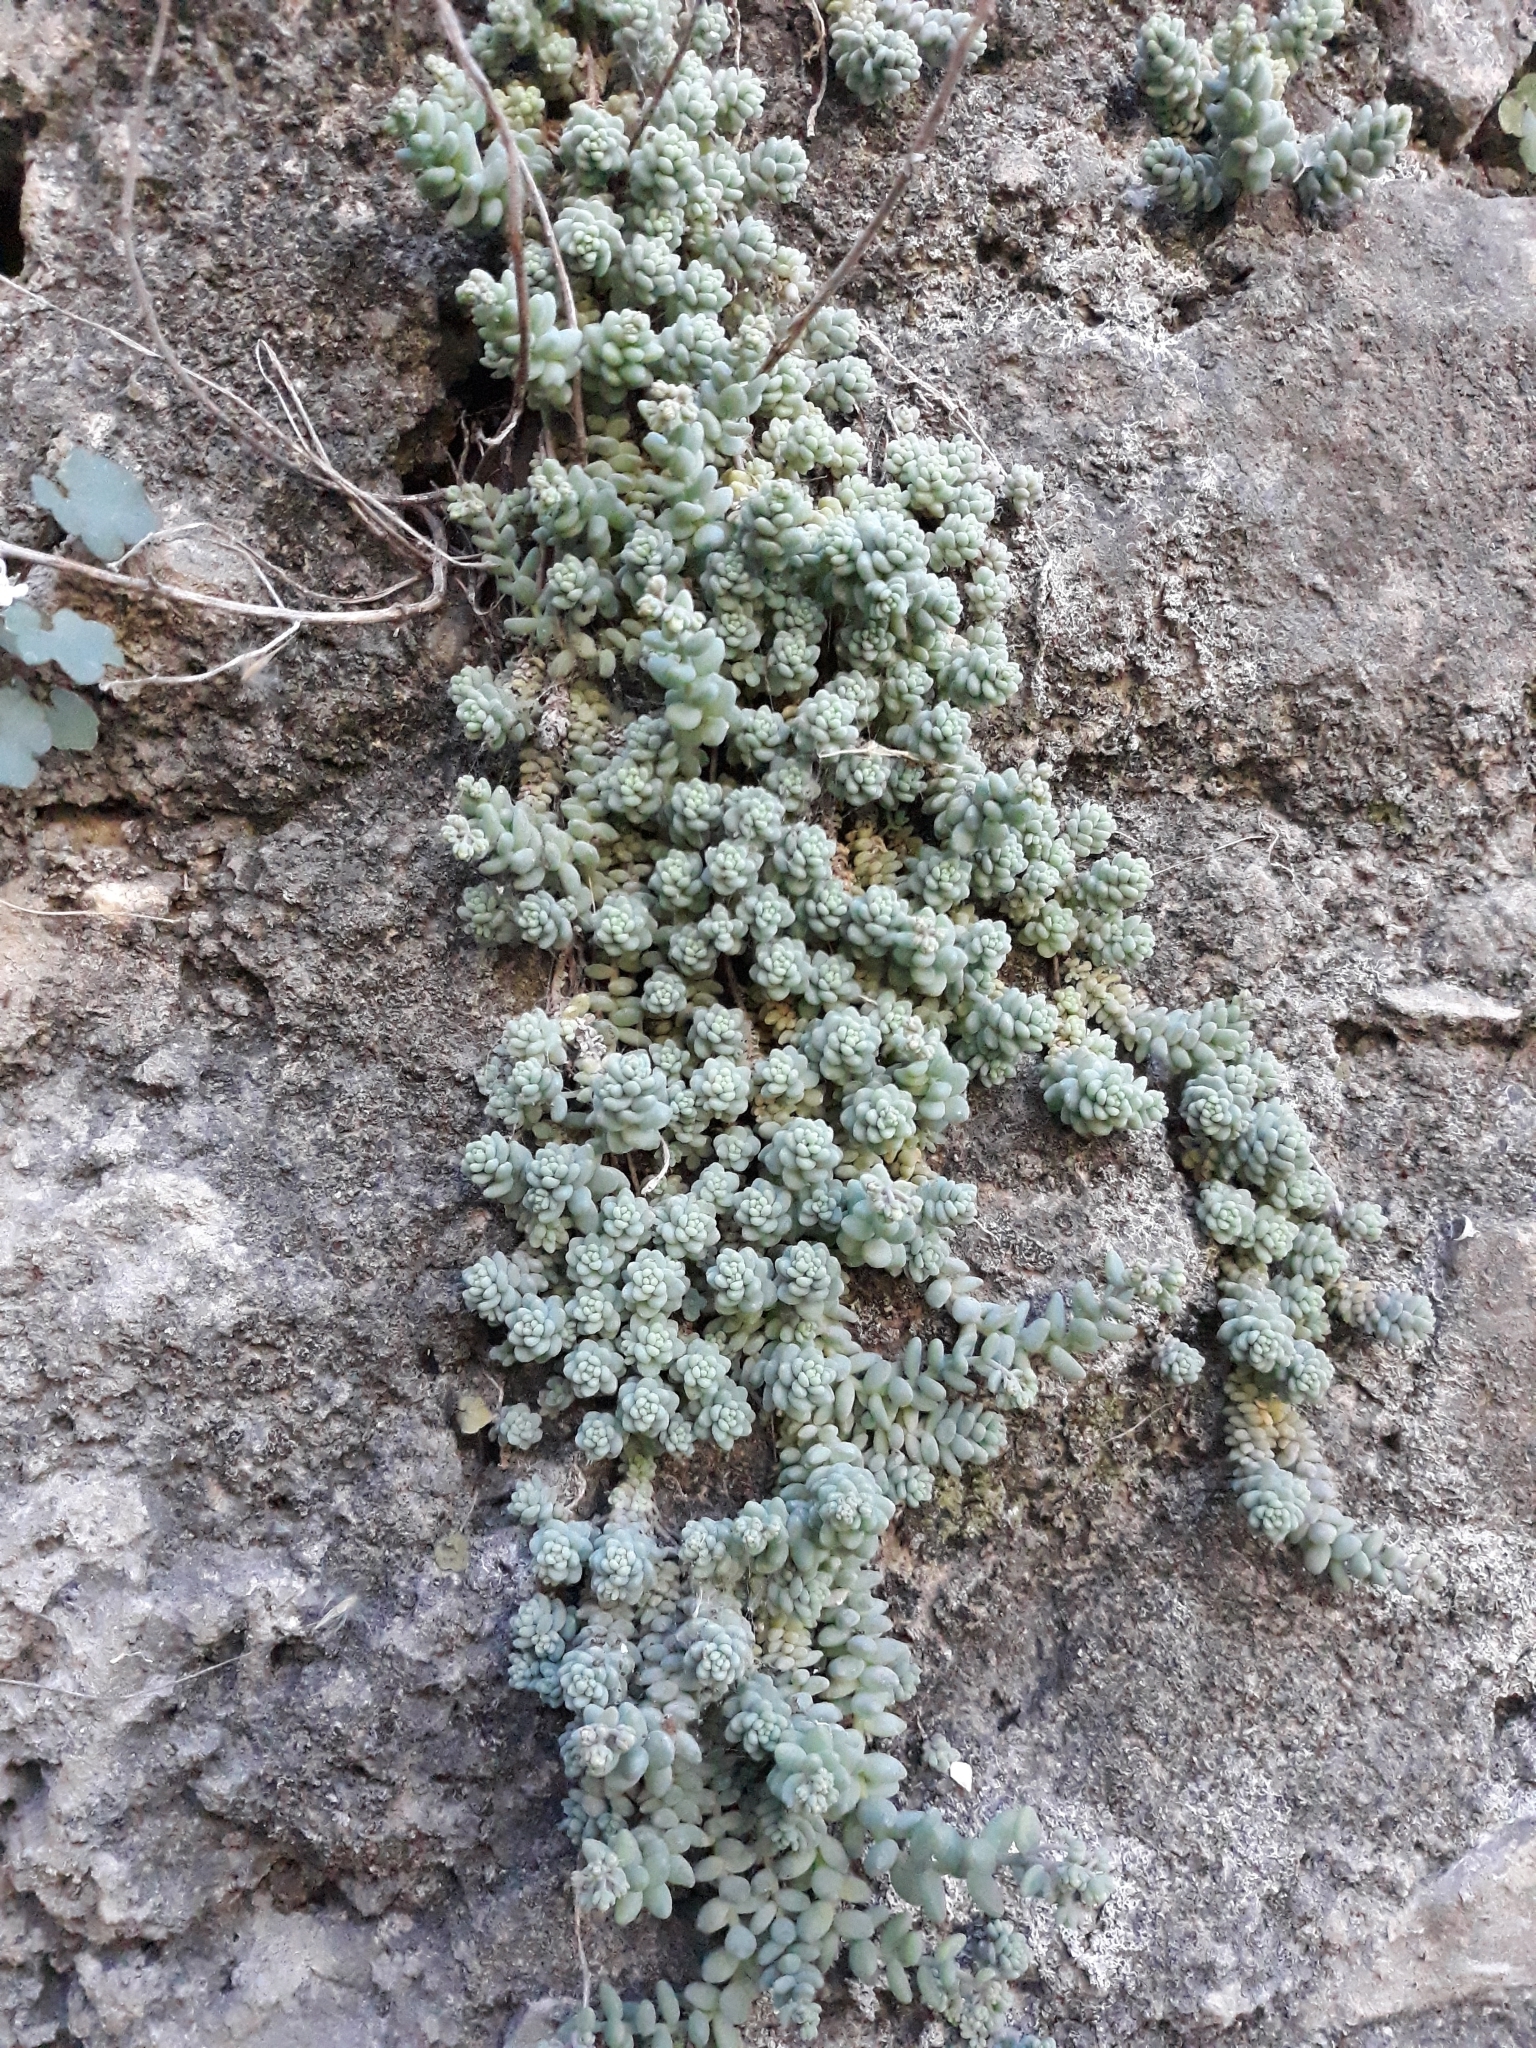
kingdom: Plantae
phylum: Tracheophyta
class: Magnoliopsida
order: Saxifragales
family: Crassulaceae
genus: Sedum
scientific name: Sedum dasyphyllum
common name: Thick-leaf stonecrop
